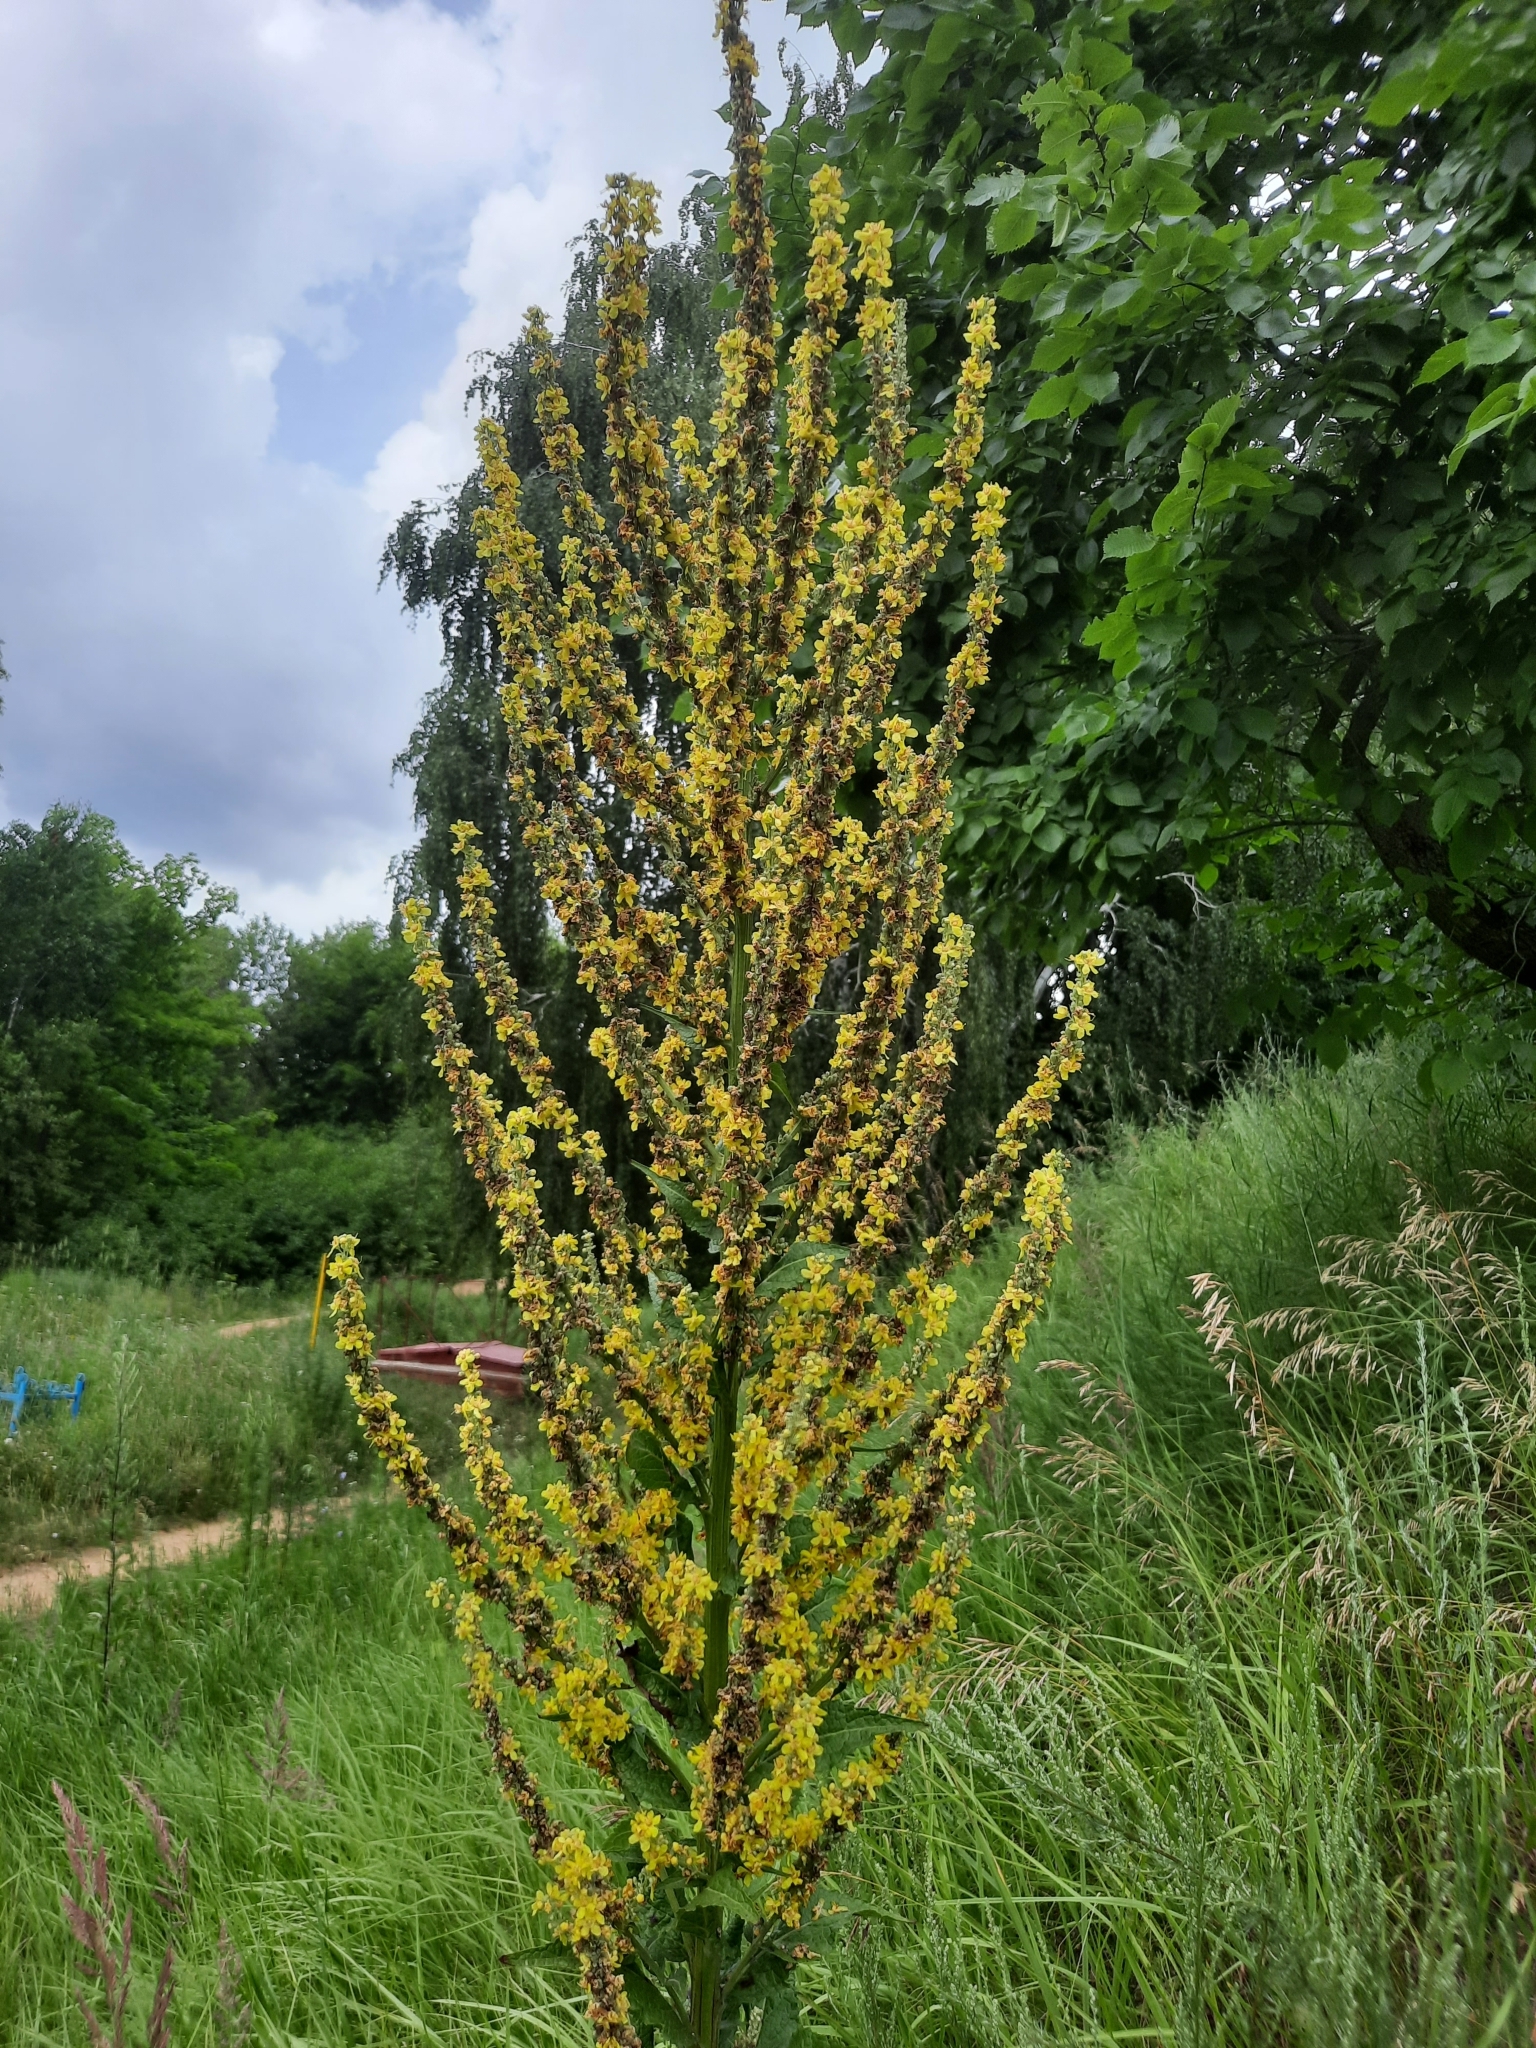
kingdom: Plantae
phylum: Tracheophyta
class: Magnoliopsida
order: Lamiales
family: Scrophulariaceae
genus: Verbascum
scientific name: Verbascum lychnitis
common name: White mullein
